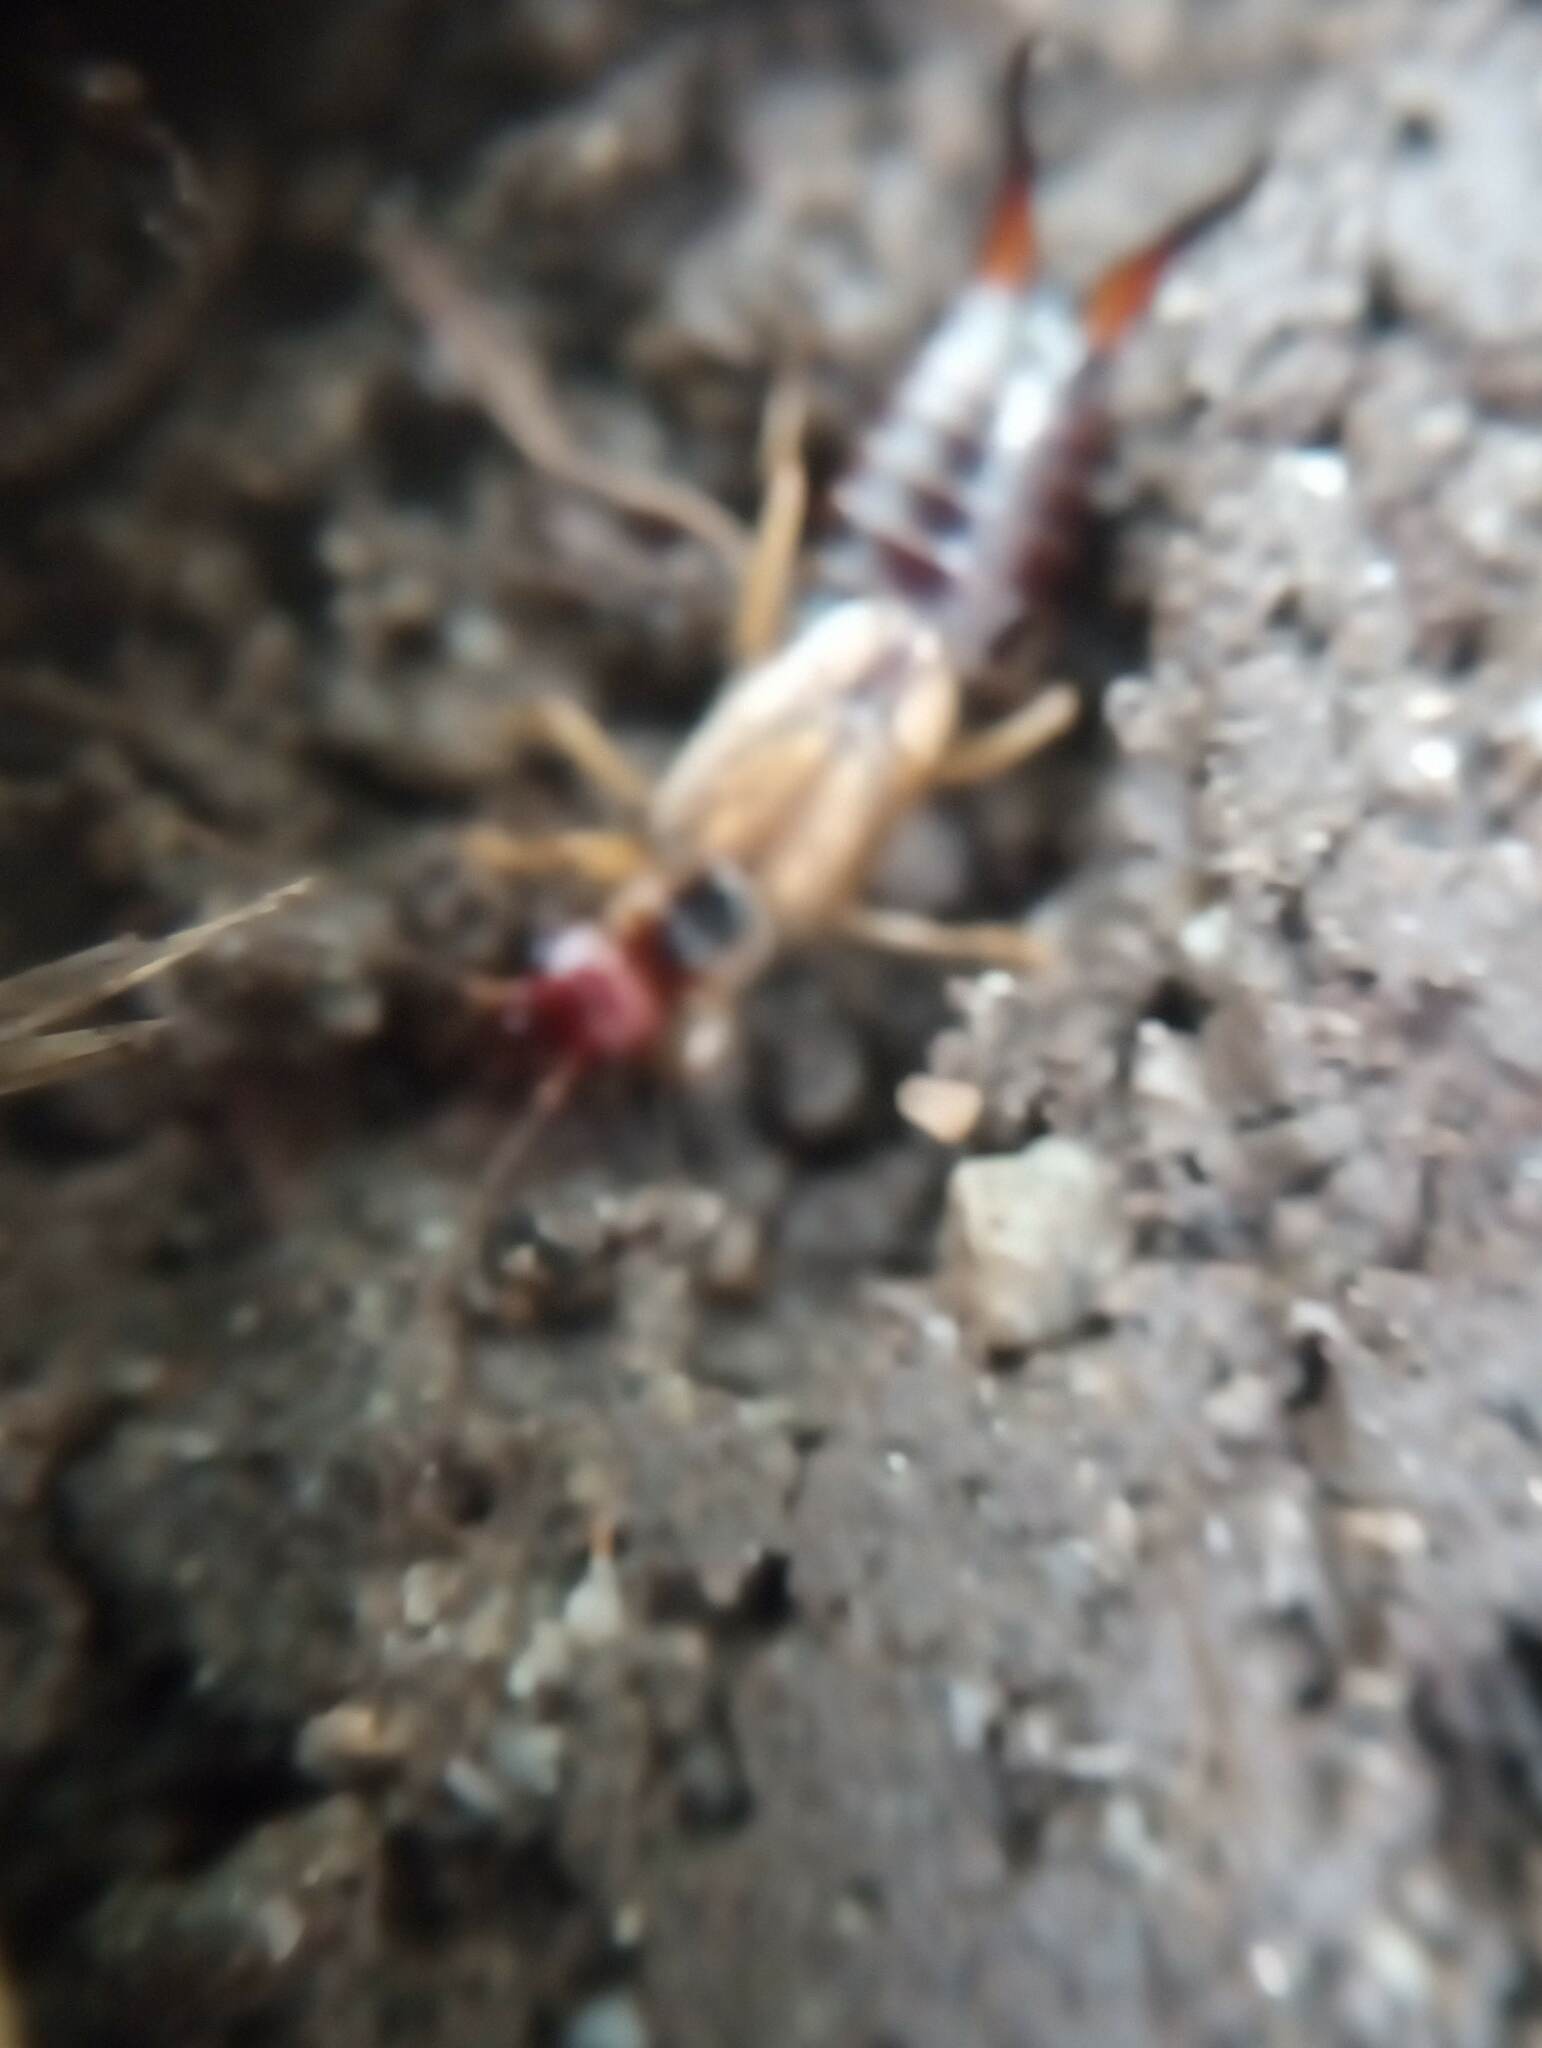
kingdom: Animalia
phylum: Arthropoda
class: Insecta
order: Dermaptera
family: Forficulidae
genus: Forficula
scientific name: Forficula
